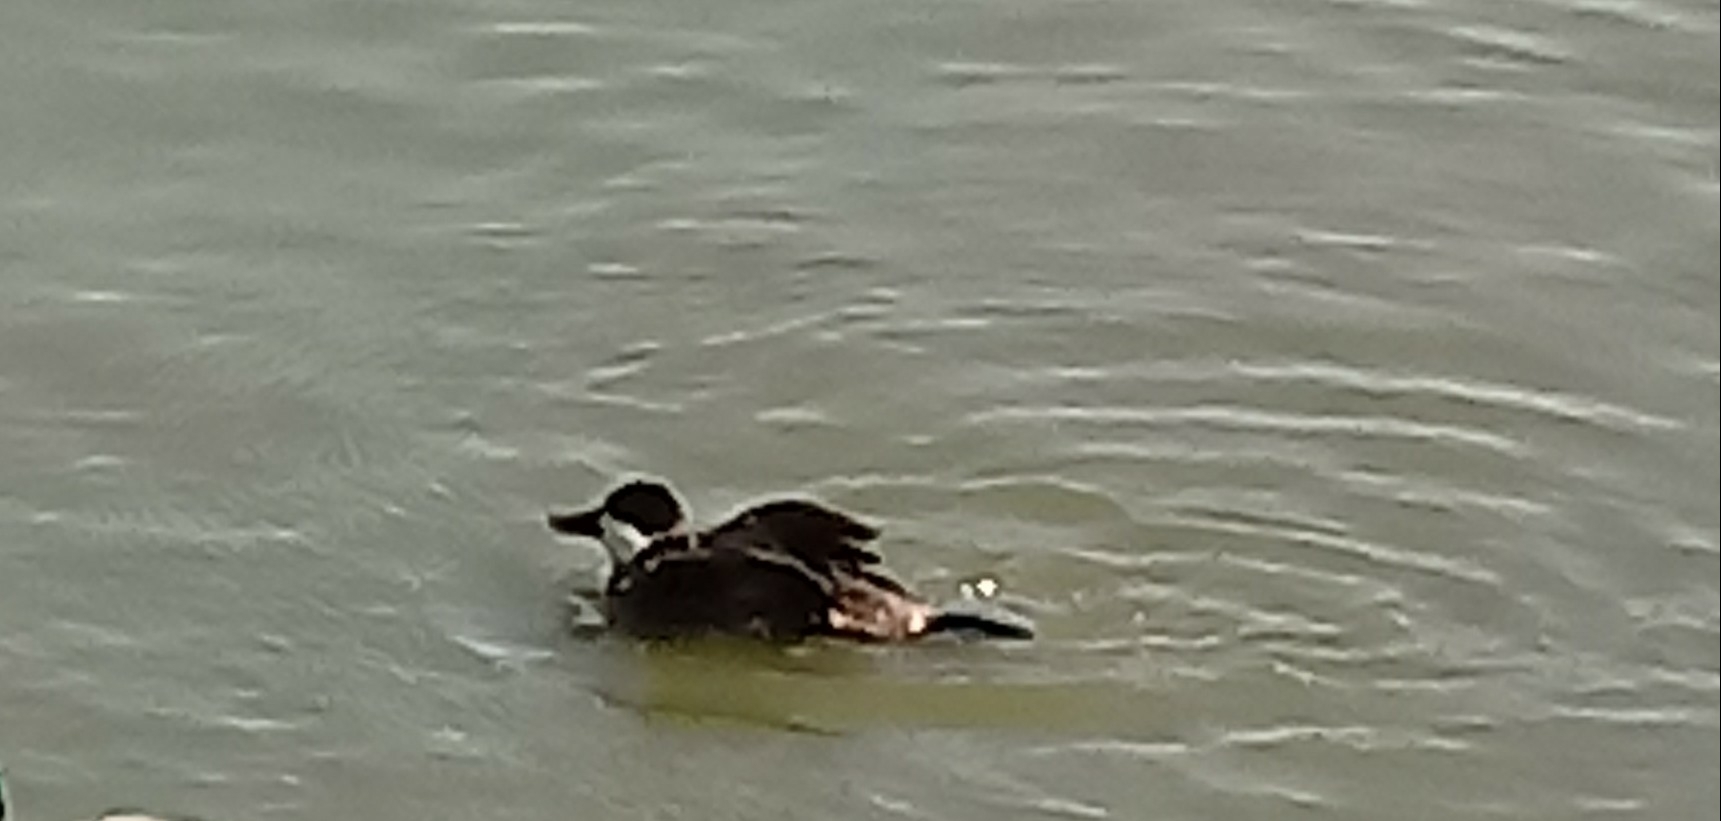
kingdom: Animalia
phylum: Chordata
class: Aves
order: Anseriformes
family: Anatidae
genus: Oxyura
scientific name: Oxyura jamaicensis
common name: Ruddy duck
